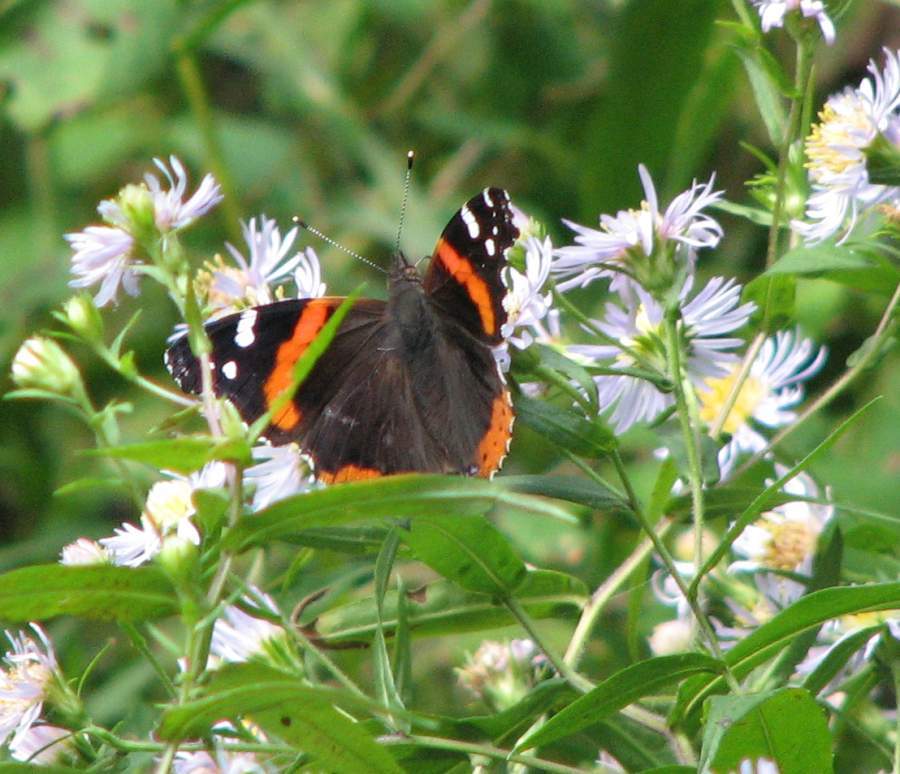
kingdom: Animalia
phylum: Arthropoda
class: Insecta
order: Lepidoptera
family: Nymphalidae
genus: Vanessa
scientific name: Vanessa atalanta
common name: Red admiral
